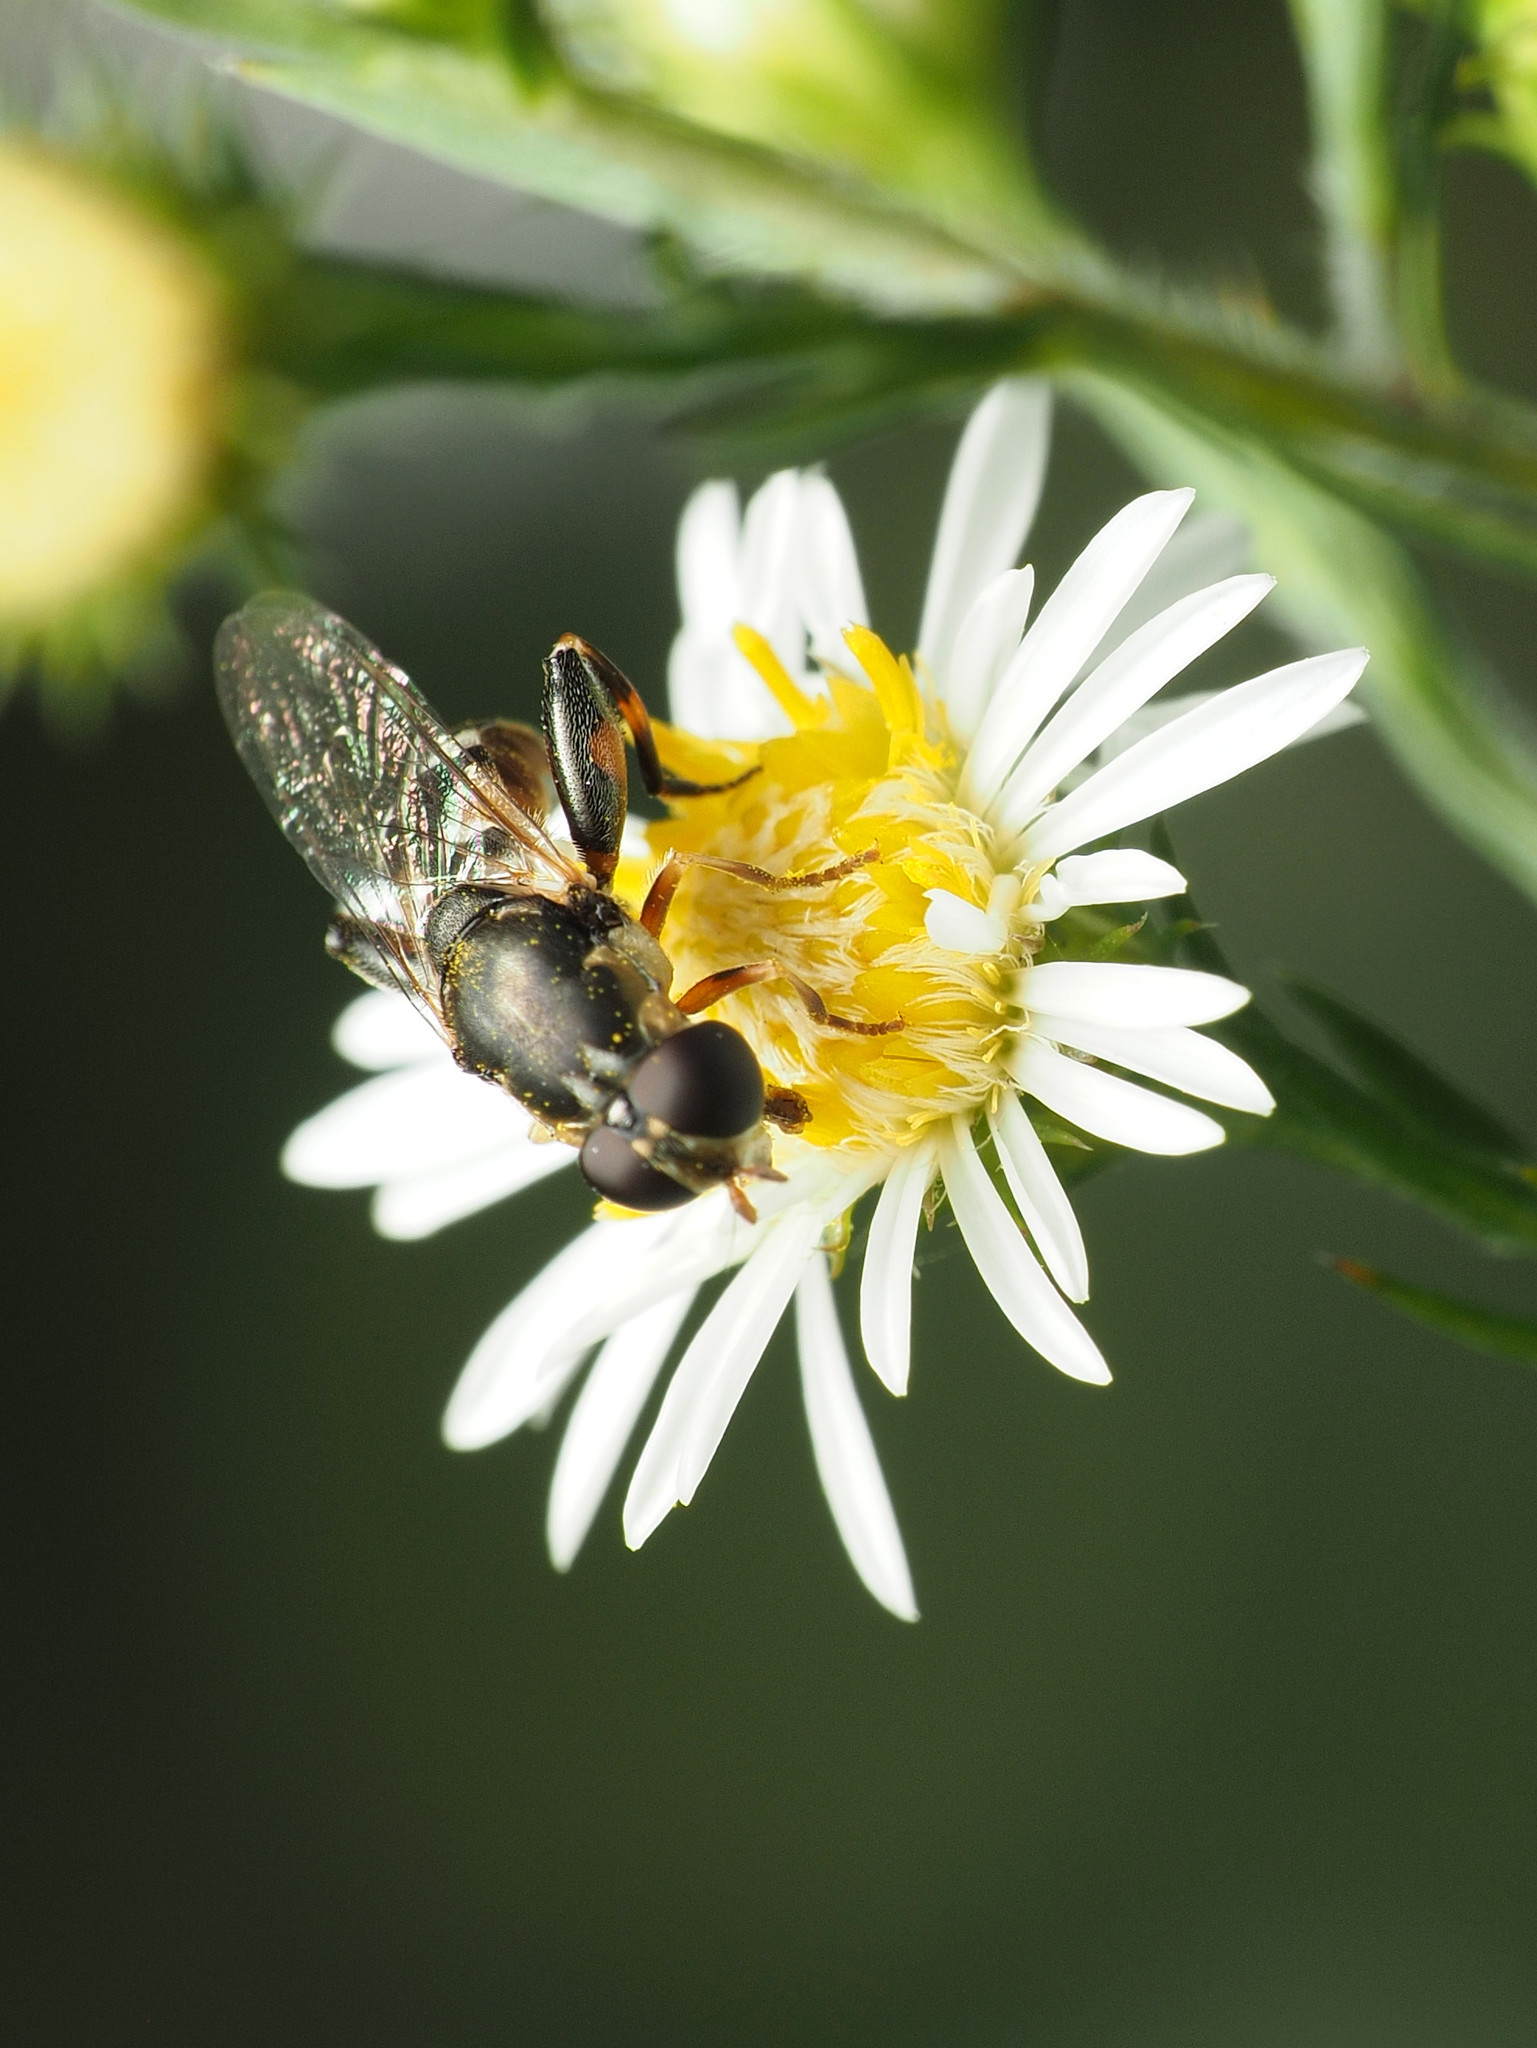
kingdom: Animalia
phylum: Arthropoda
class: Insecta
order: Diptera
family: Syrphidae
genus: Syritta
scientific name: Syritta pipiens
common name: Hover fly
